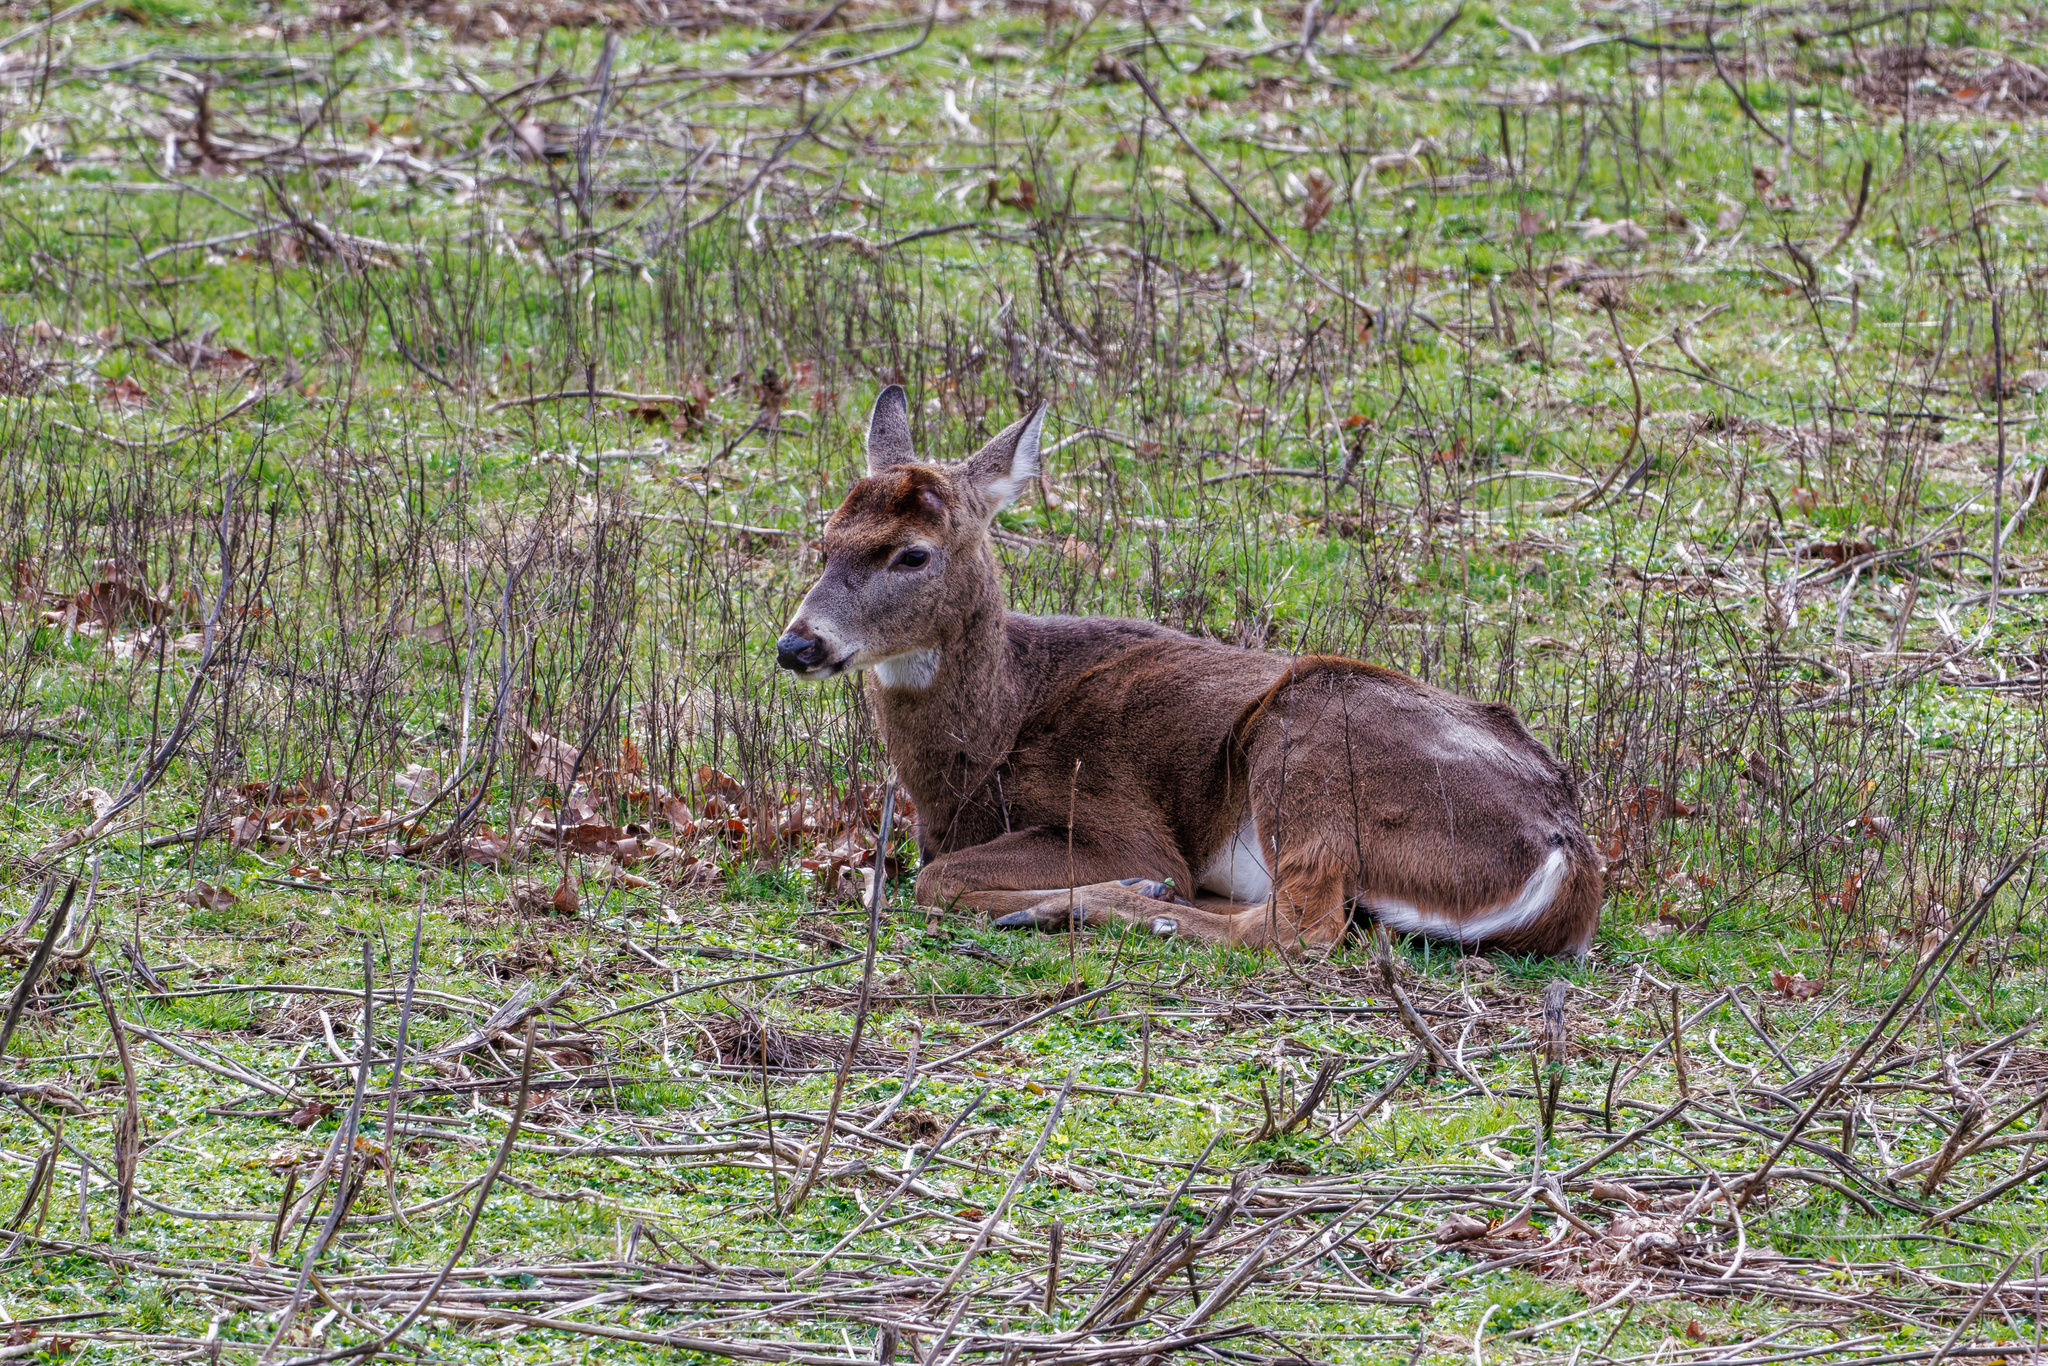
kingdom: Animalia
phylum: Chordata
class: Mammalia
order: Artiodactyla
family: Cervidae
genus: Odocoileus
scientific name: Odocoileus virginianus
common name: White-tailed deer
